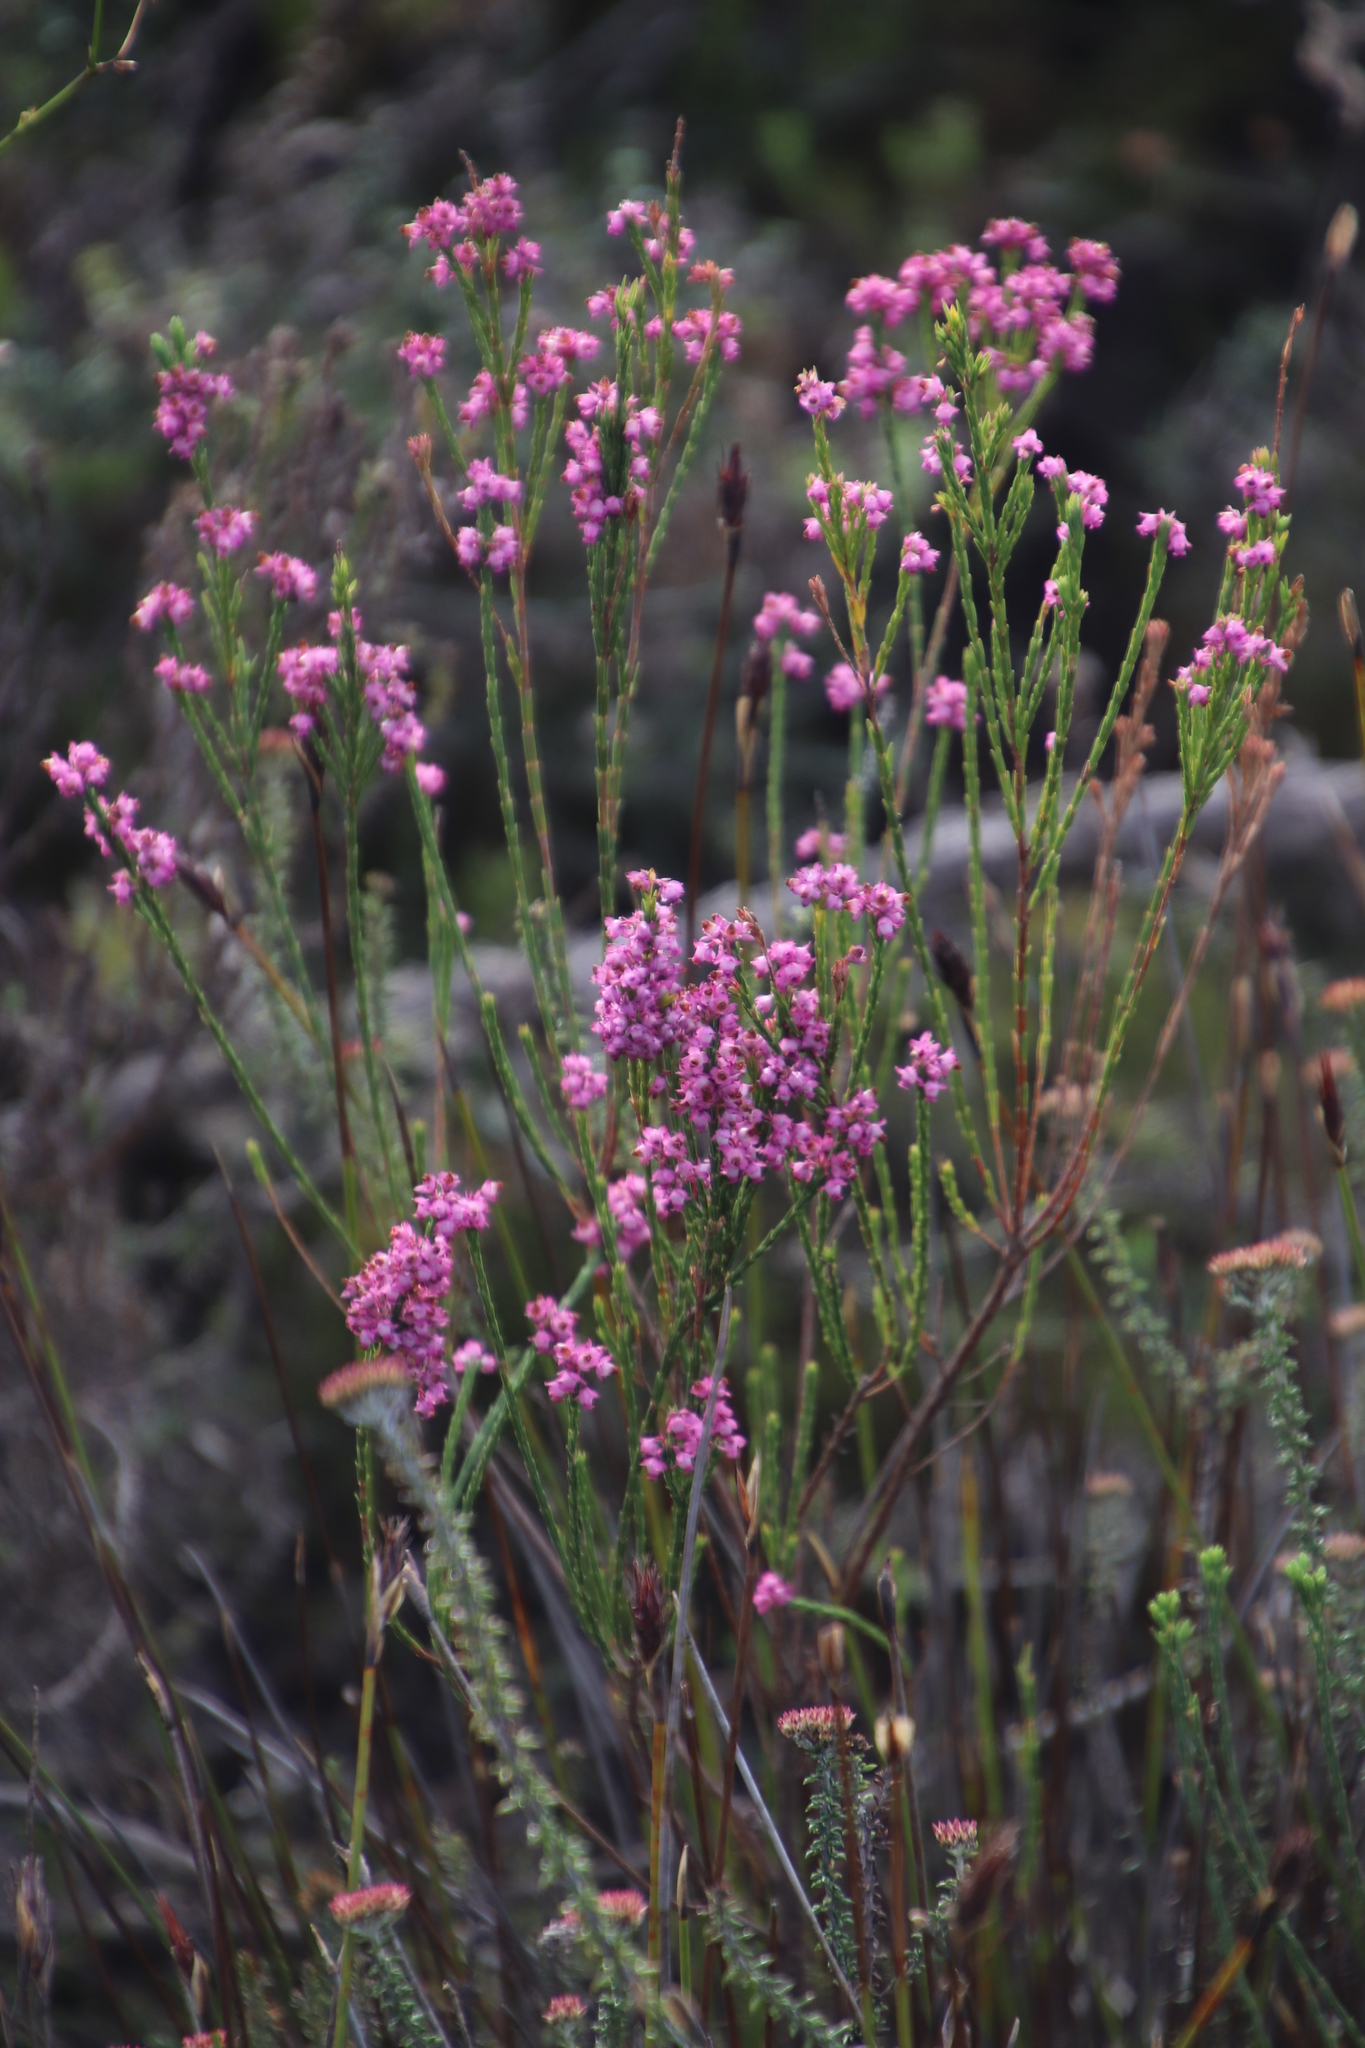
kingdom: Plantae
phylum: Tracheophyta
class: Magnoliopsida
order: Ericales
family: Ericaceae
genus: Erica
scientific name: Erica corifolia
